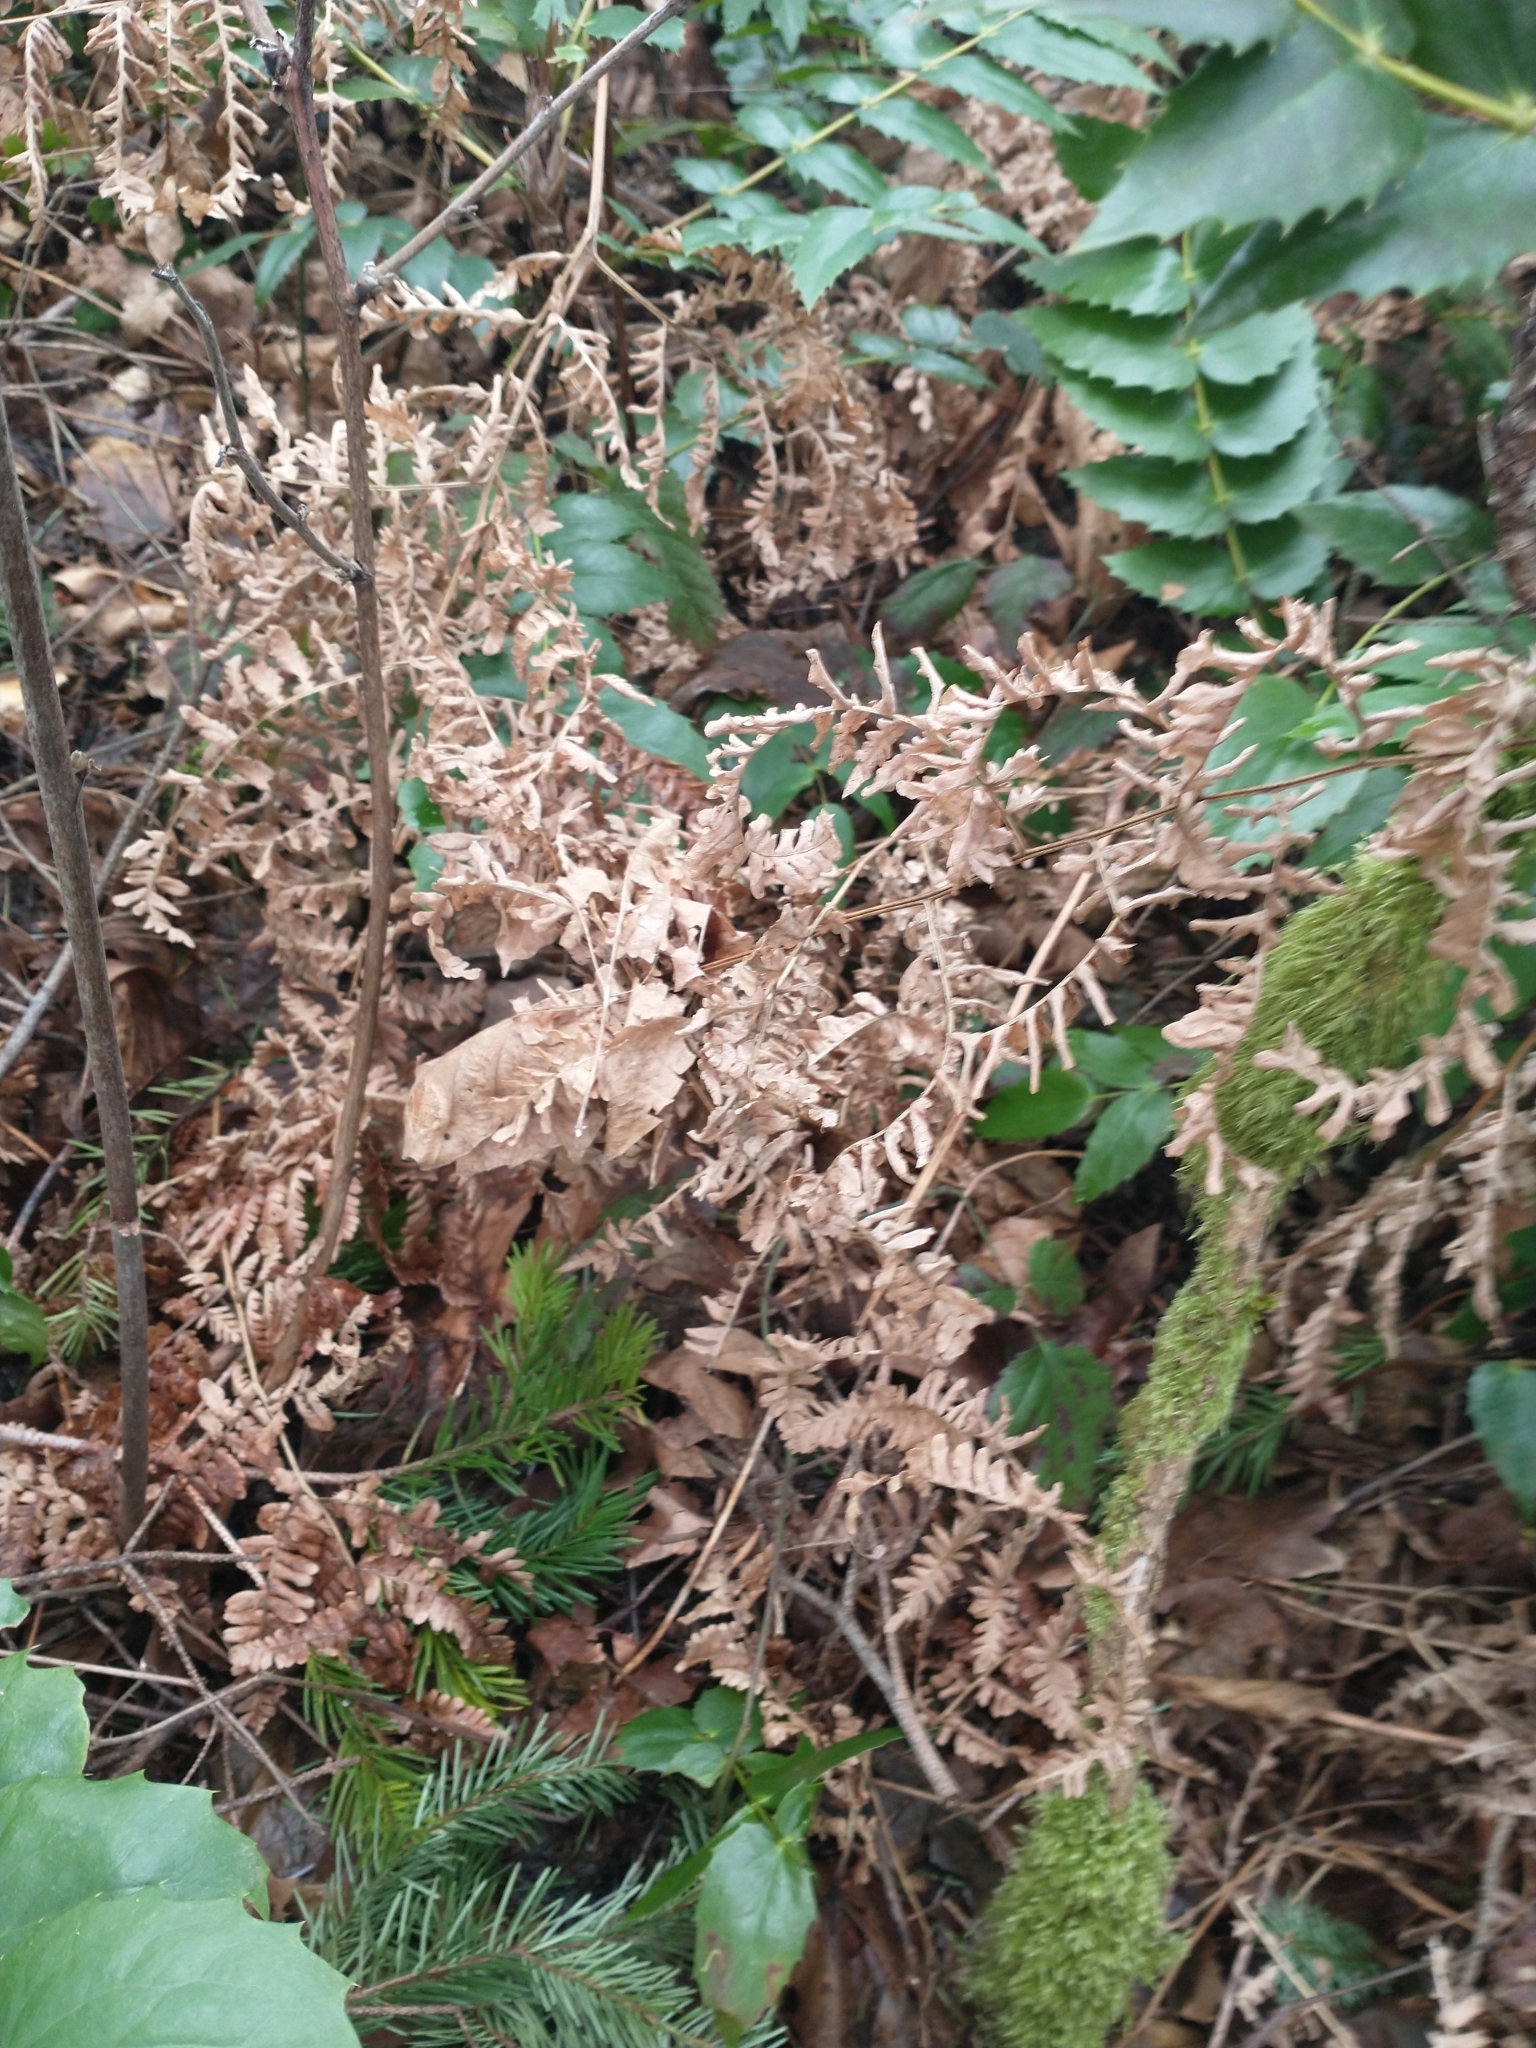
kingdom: Plantae
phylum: Tracheophyta
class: Polypodiopsida
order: Polypodiales
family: Dennstaedtiaceae
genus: Pteridium
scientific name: Pteridium aquilinum
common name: Bracken
